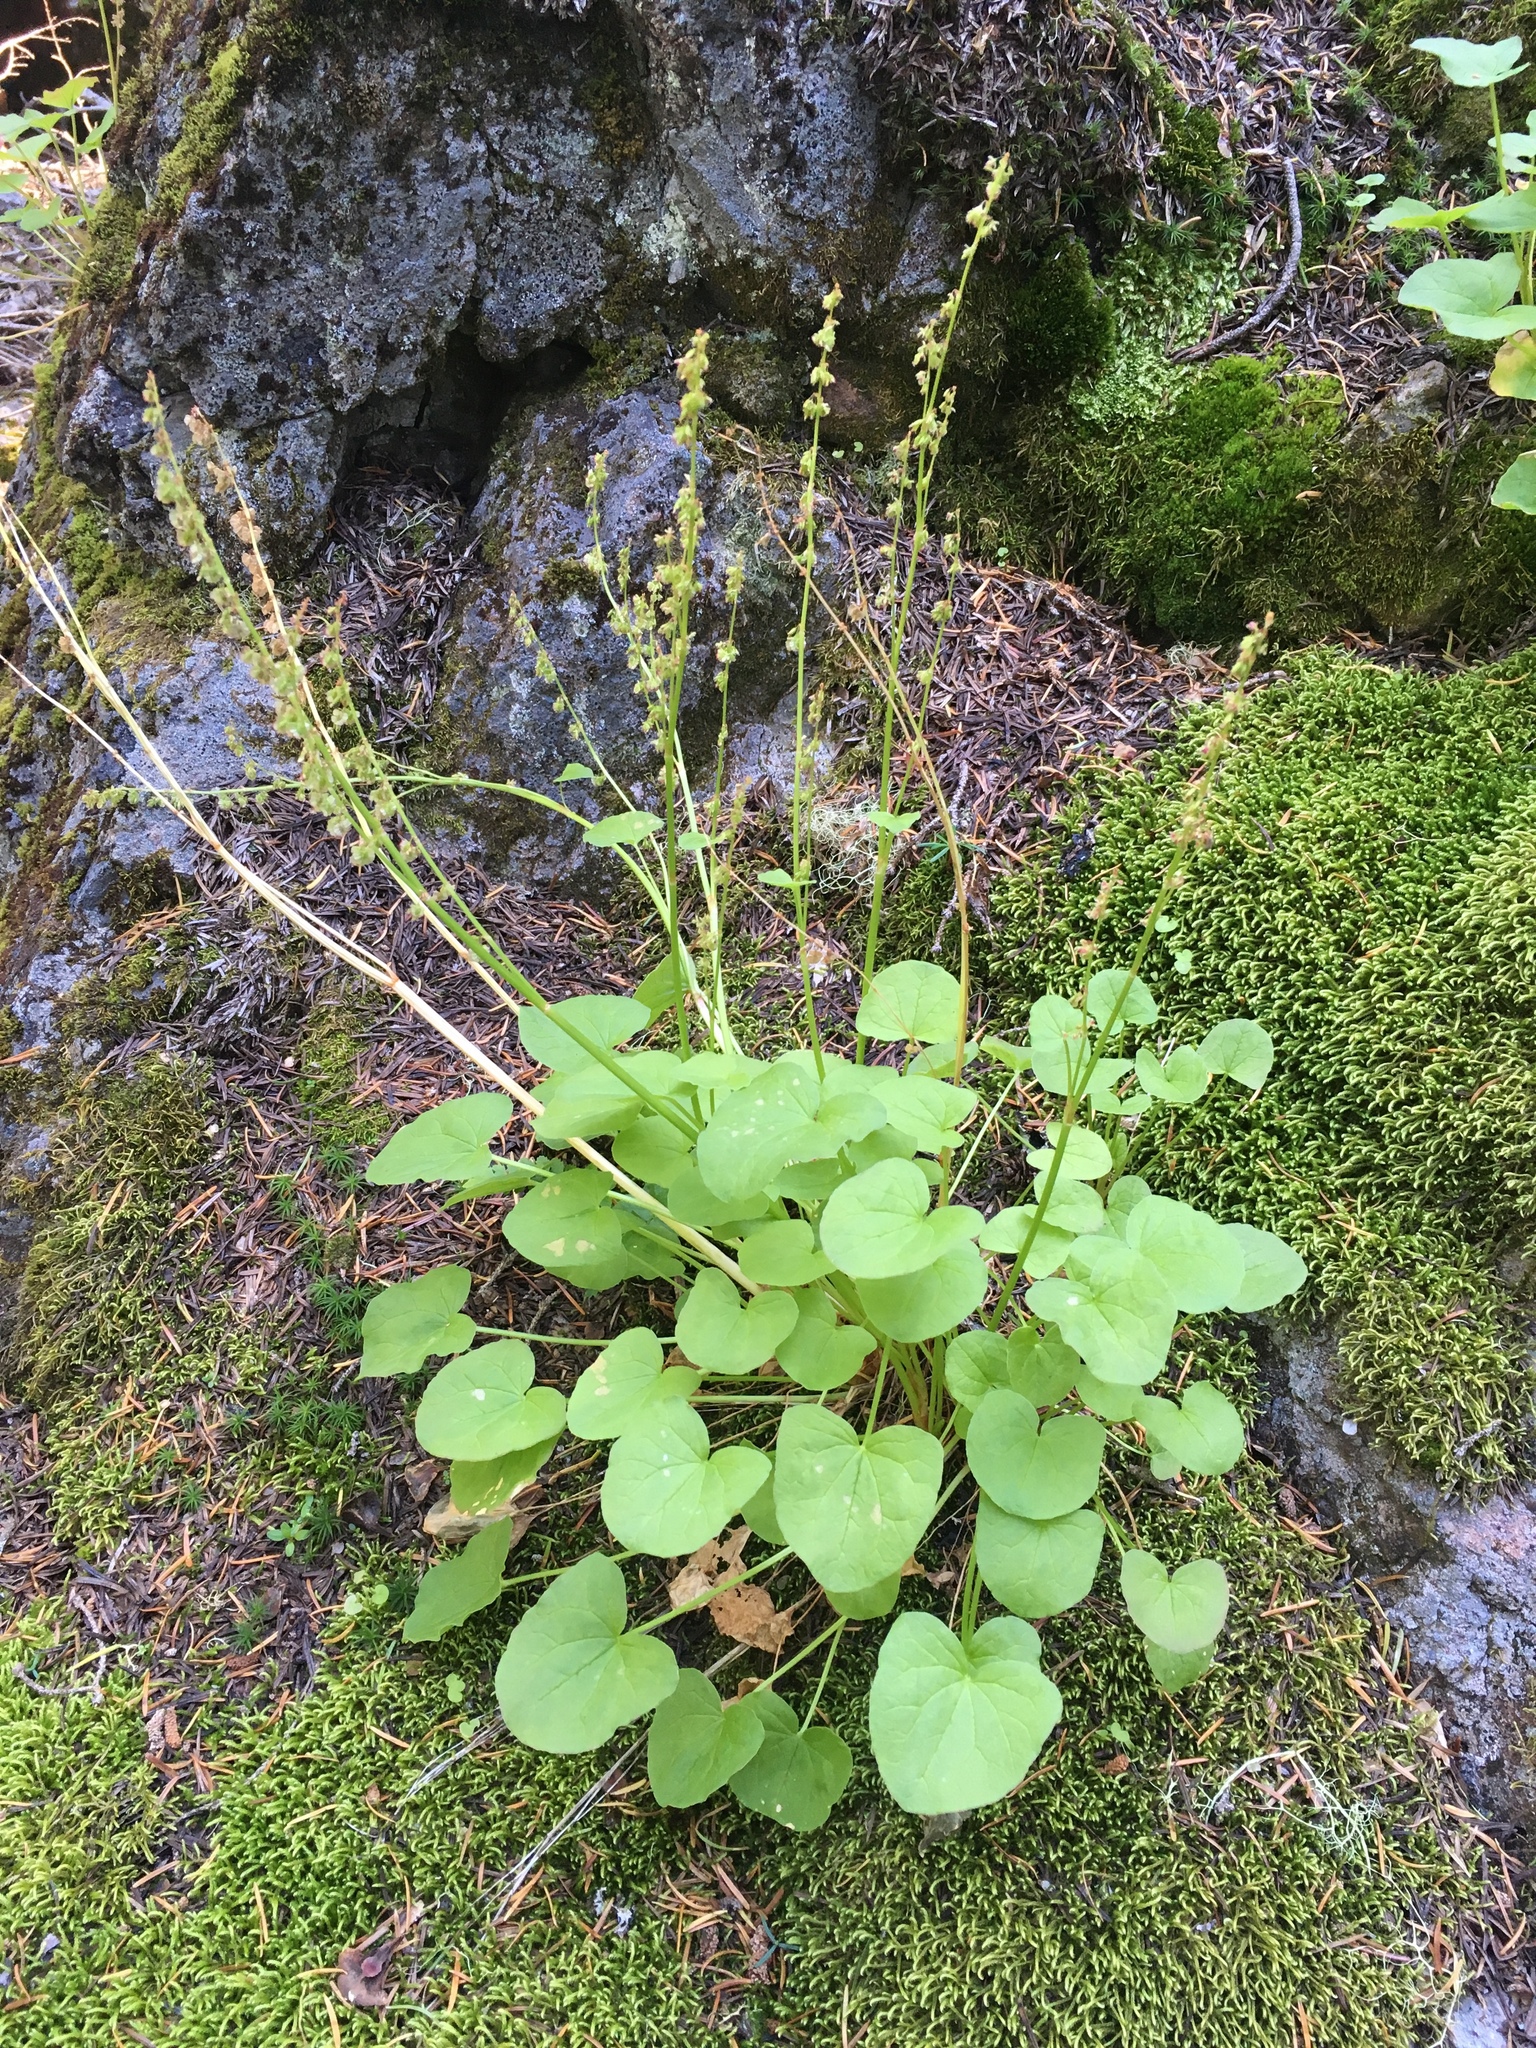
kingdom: Plantae
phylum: Tracheophyta
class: Magnoliopsida
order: Caryophyllales
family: Polygonaceae
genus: Oxyria
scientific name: Oxyria digyna
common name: Alpine mountain-sorrel
